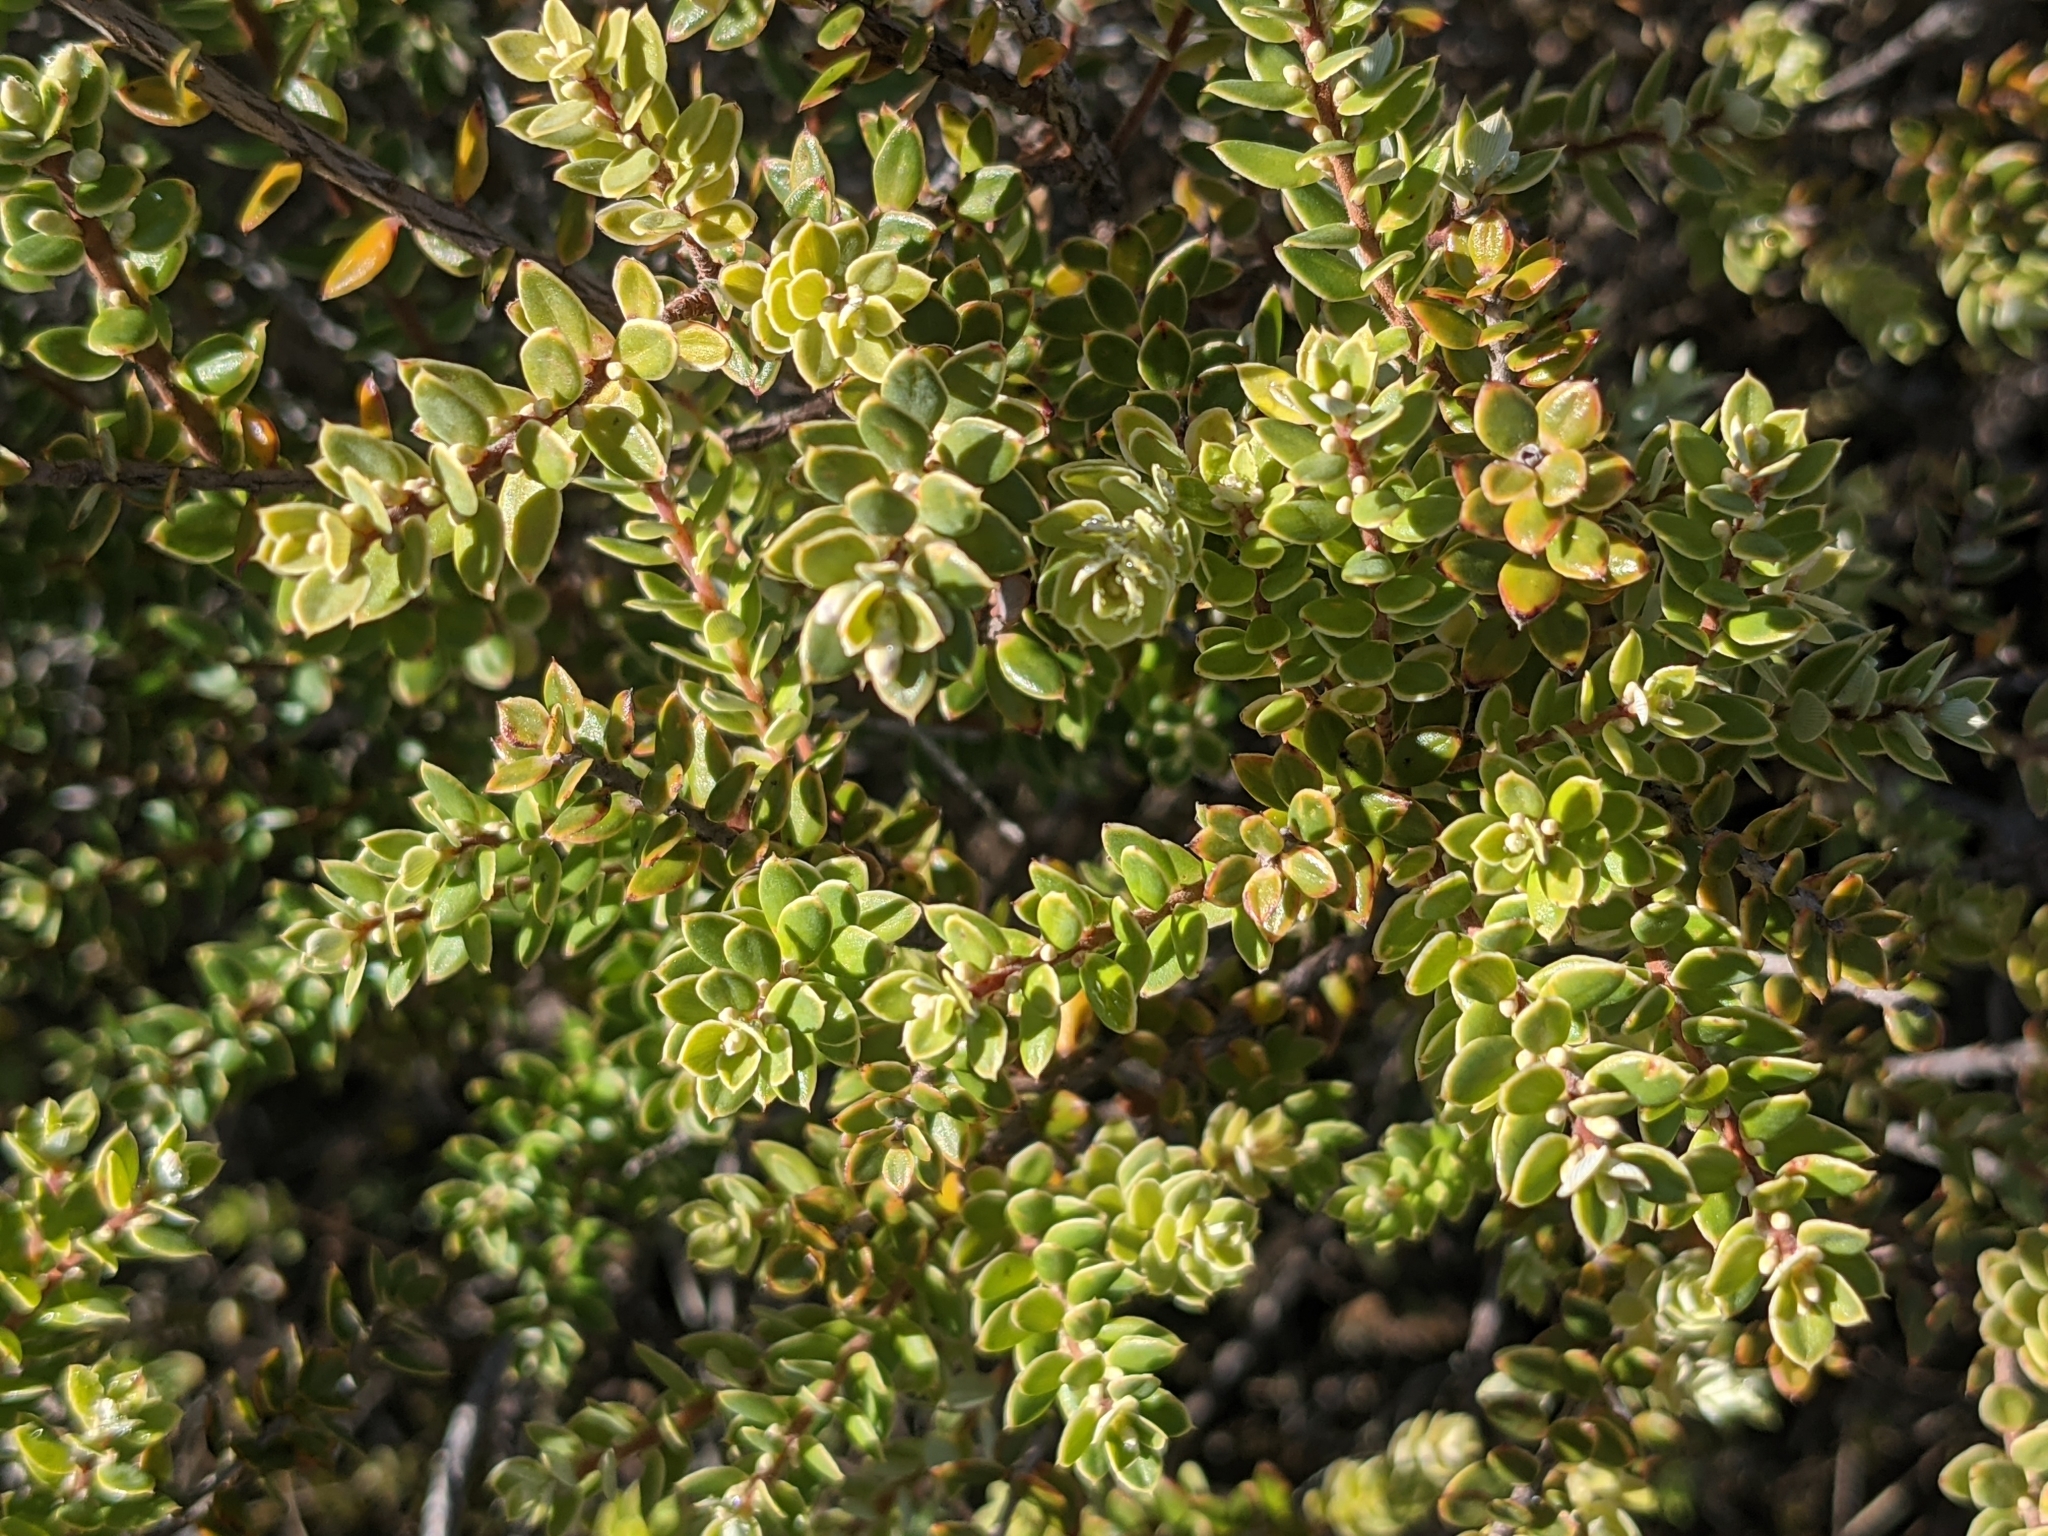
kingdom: Plantae
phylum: Tracheophyta
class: Magnoliopsida
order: Ericales
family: Ericaceae
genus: Leptecophylla
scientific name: Leptecophylla tameiameiae
